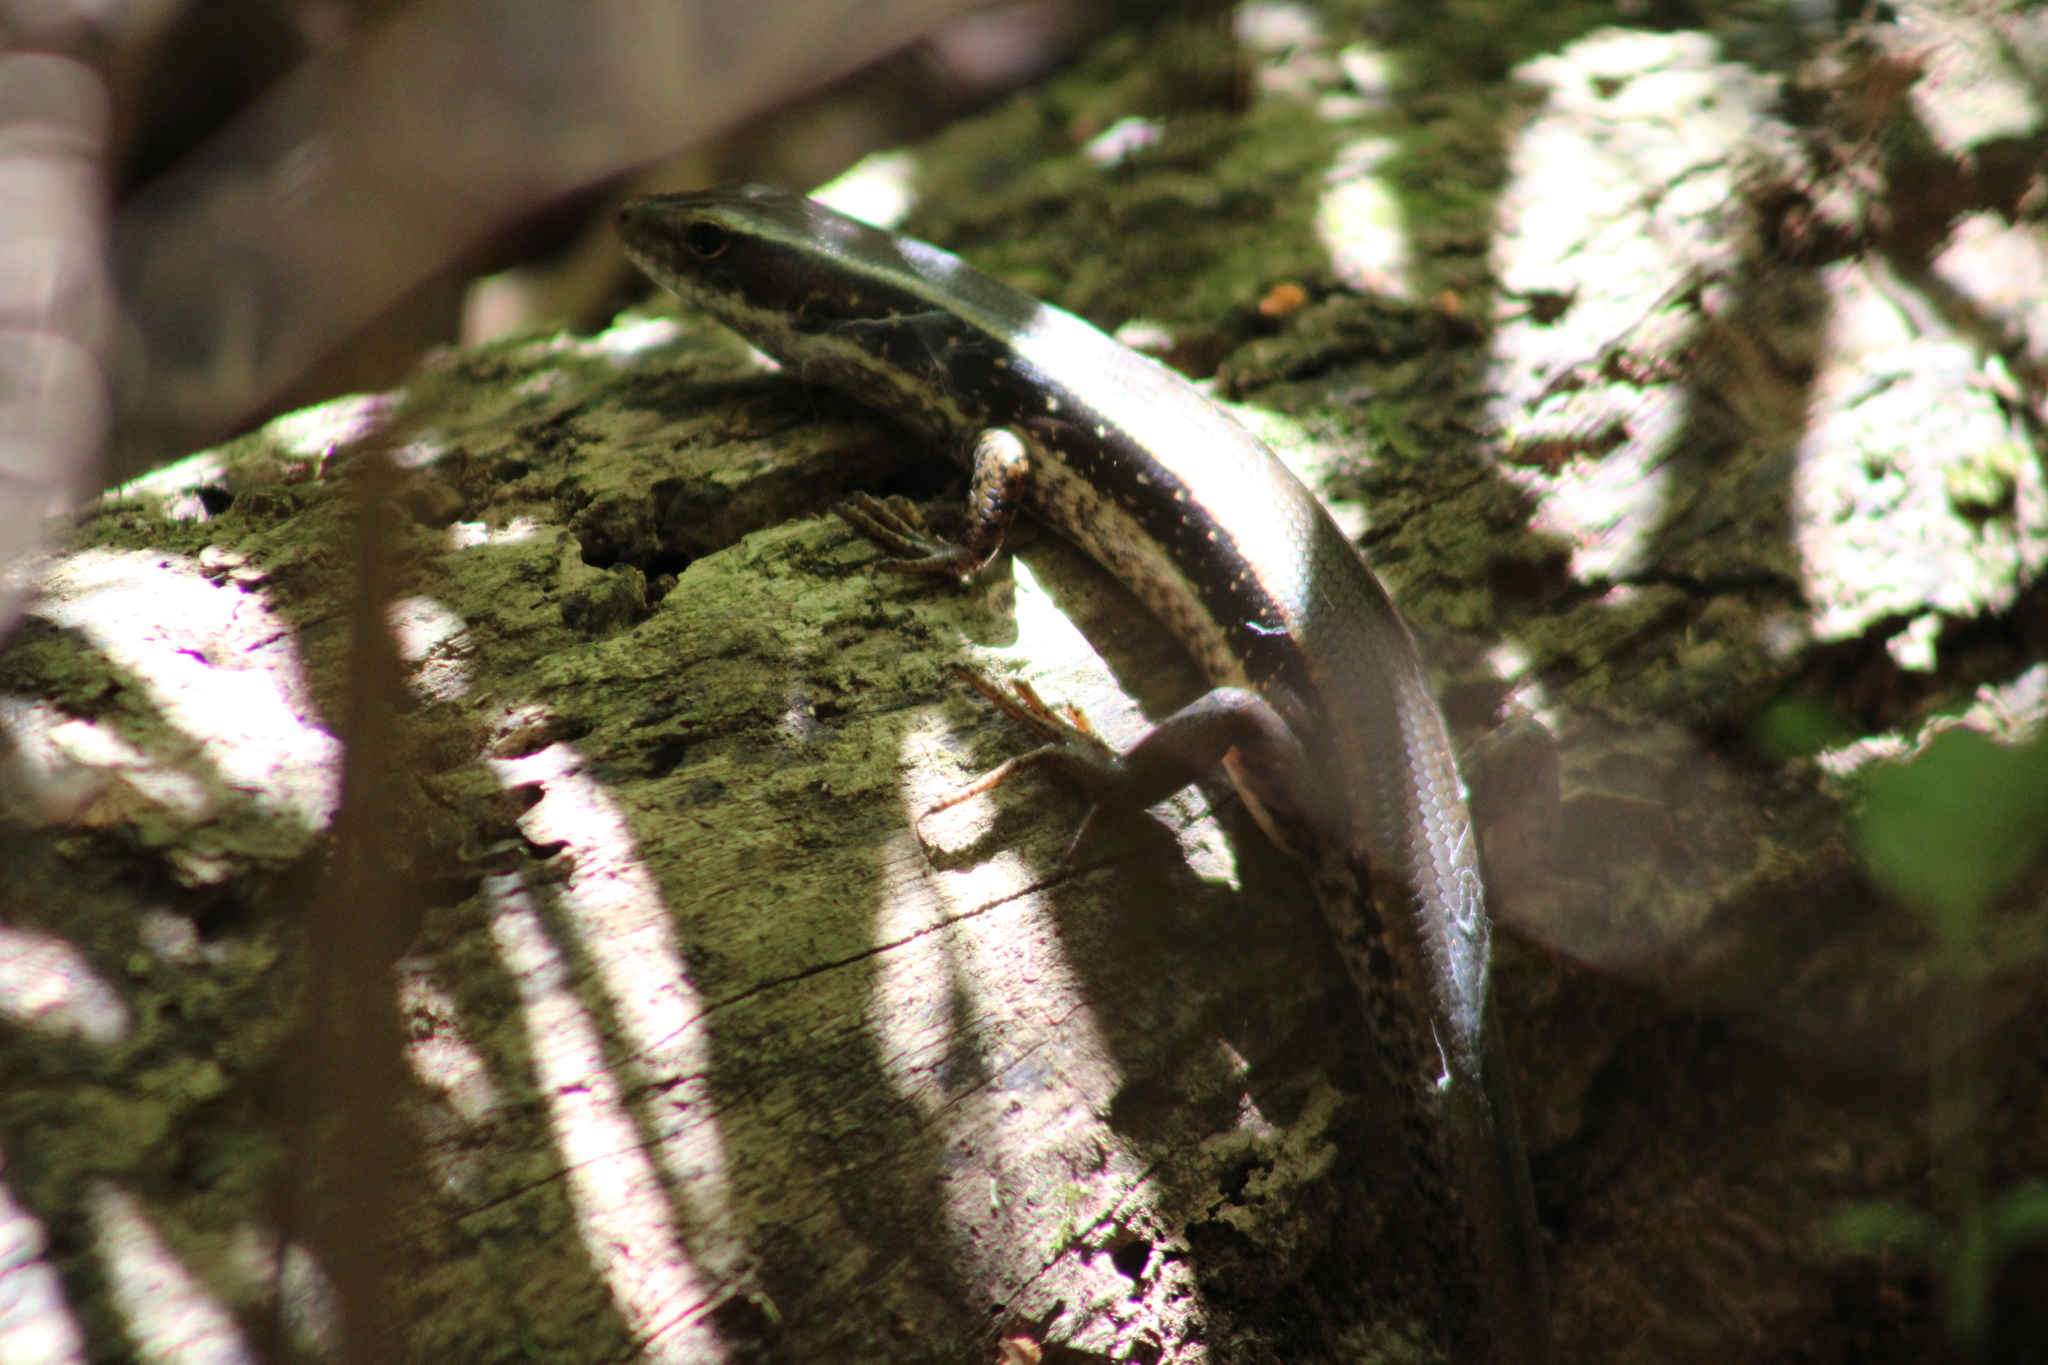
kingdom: Animalia
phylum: Chordata
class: Squamata
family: Scincidae
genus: Eulamprus
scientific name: Eulamprus quoyii
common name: Eastern water skink
